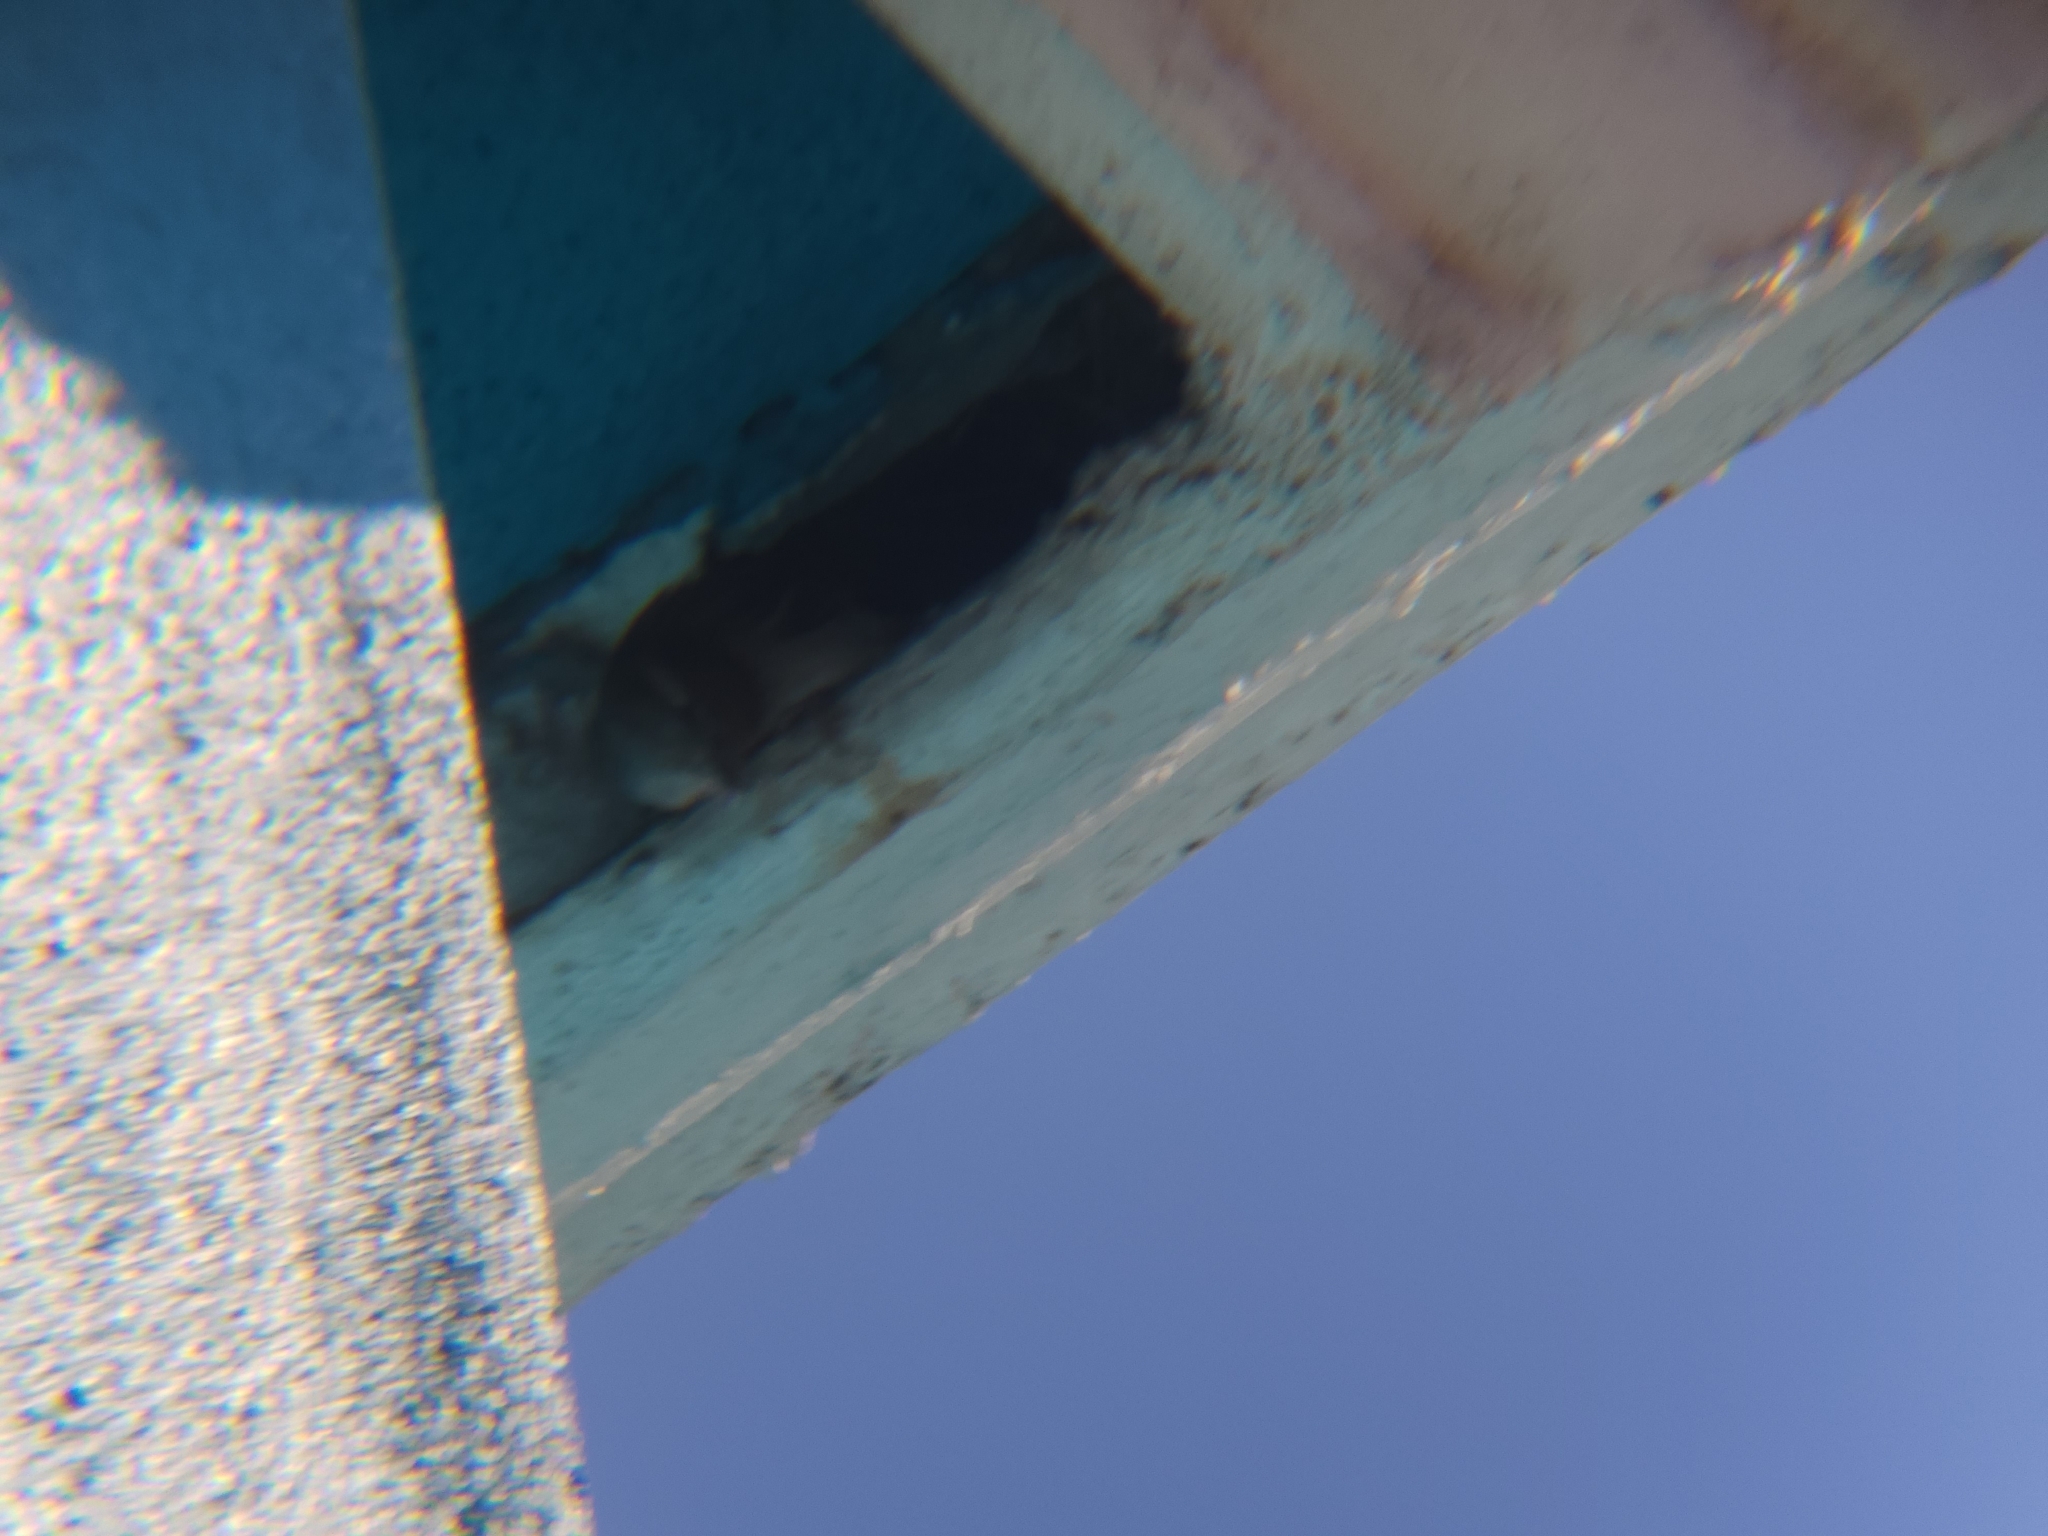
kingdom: Animalia
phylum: Chordata
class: Aves
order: Passeriformes
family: Passeridae
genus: Passer
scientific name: Passer domesticus
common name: House sparrow
